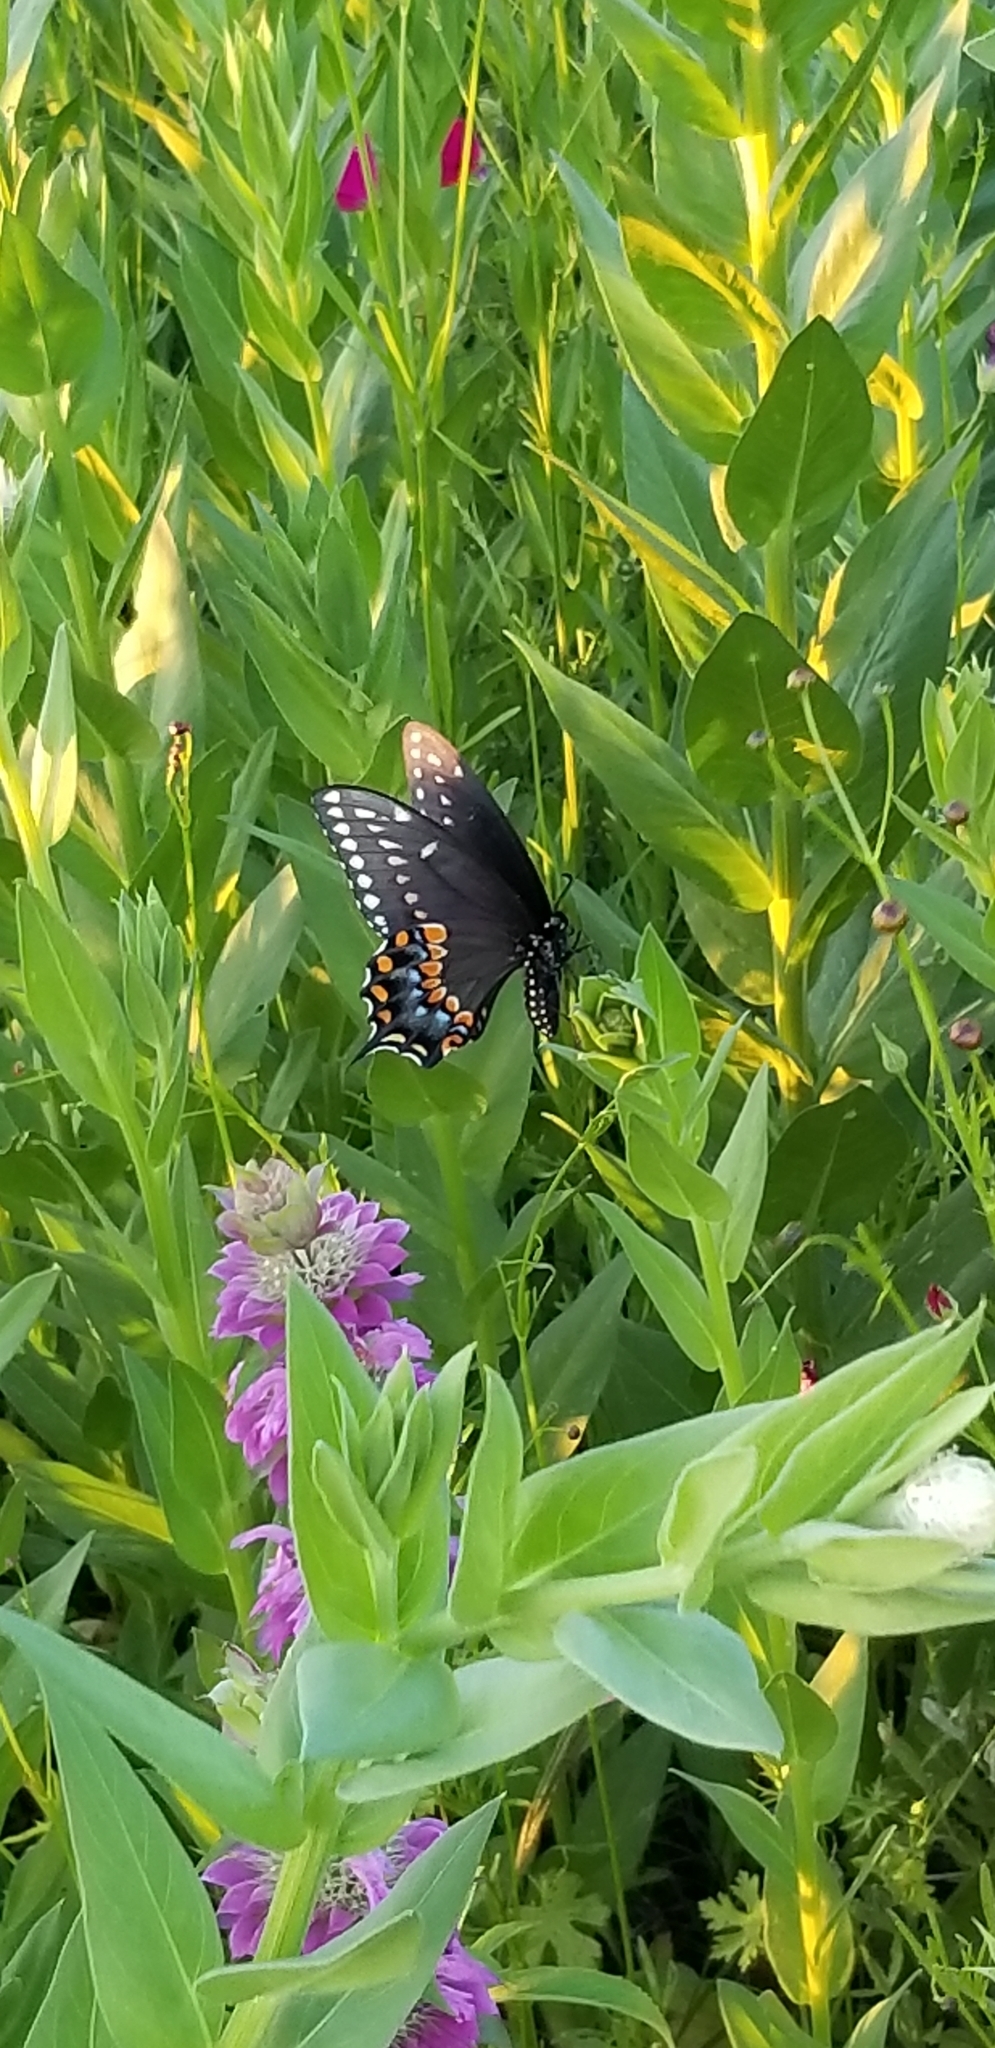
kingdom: Animalia
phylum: Arthropoda
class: Insecta
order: Lepidoptera
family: Papilionidae
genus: Papilio
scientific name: Papilio polyxenes
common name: Black swallowtail
